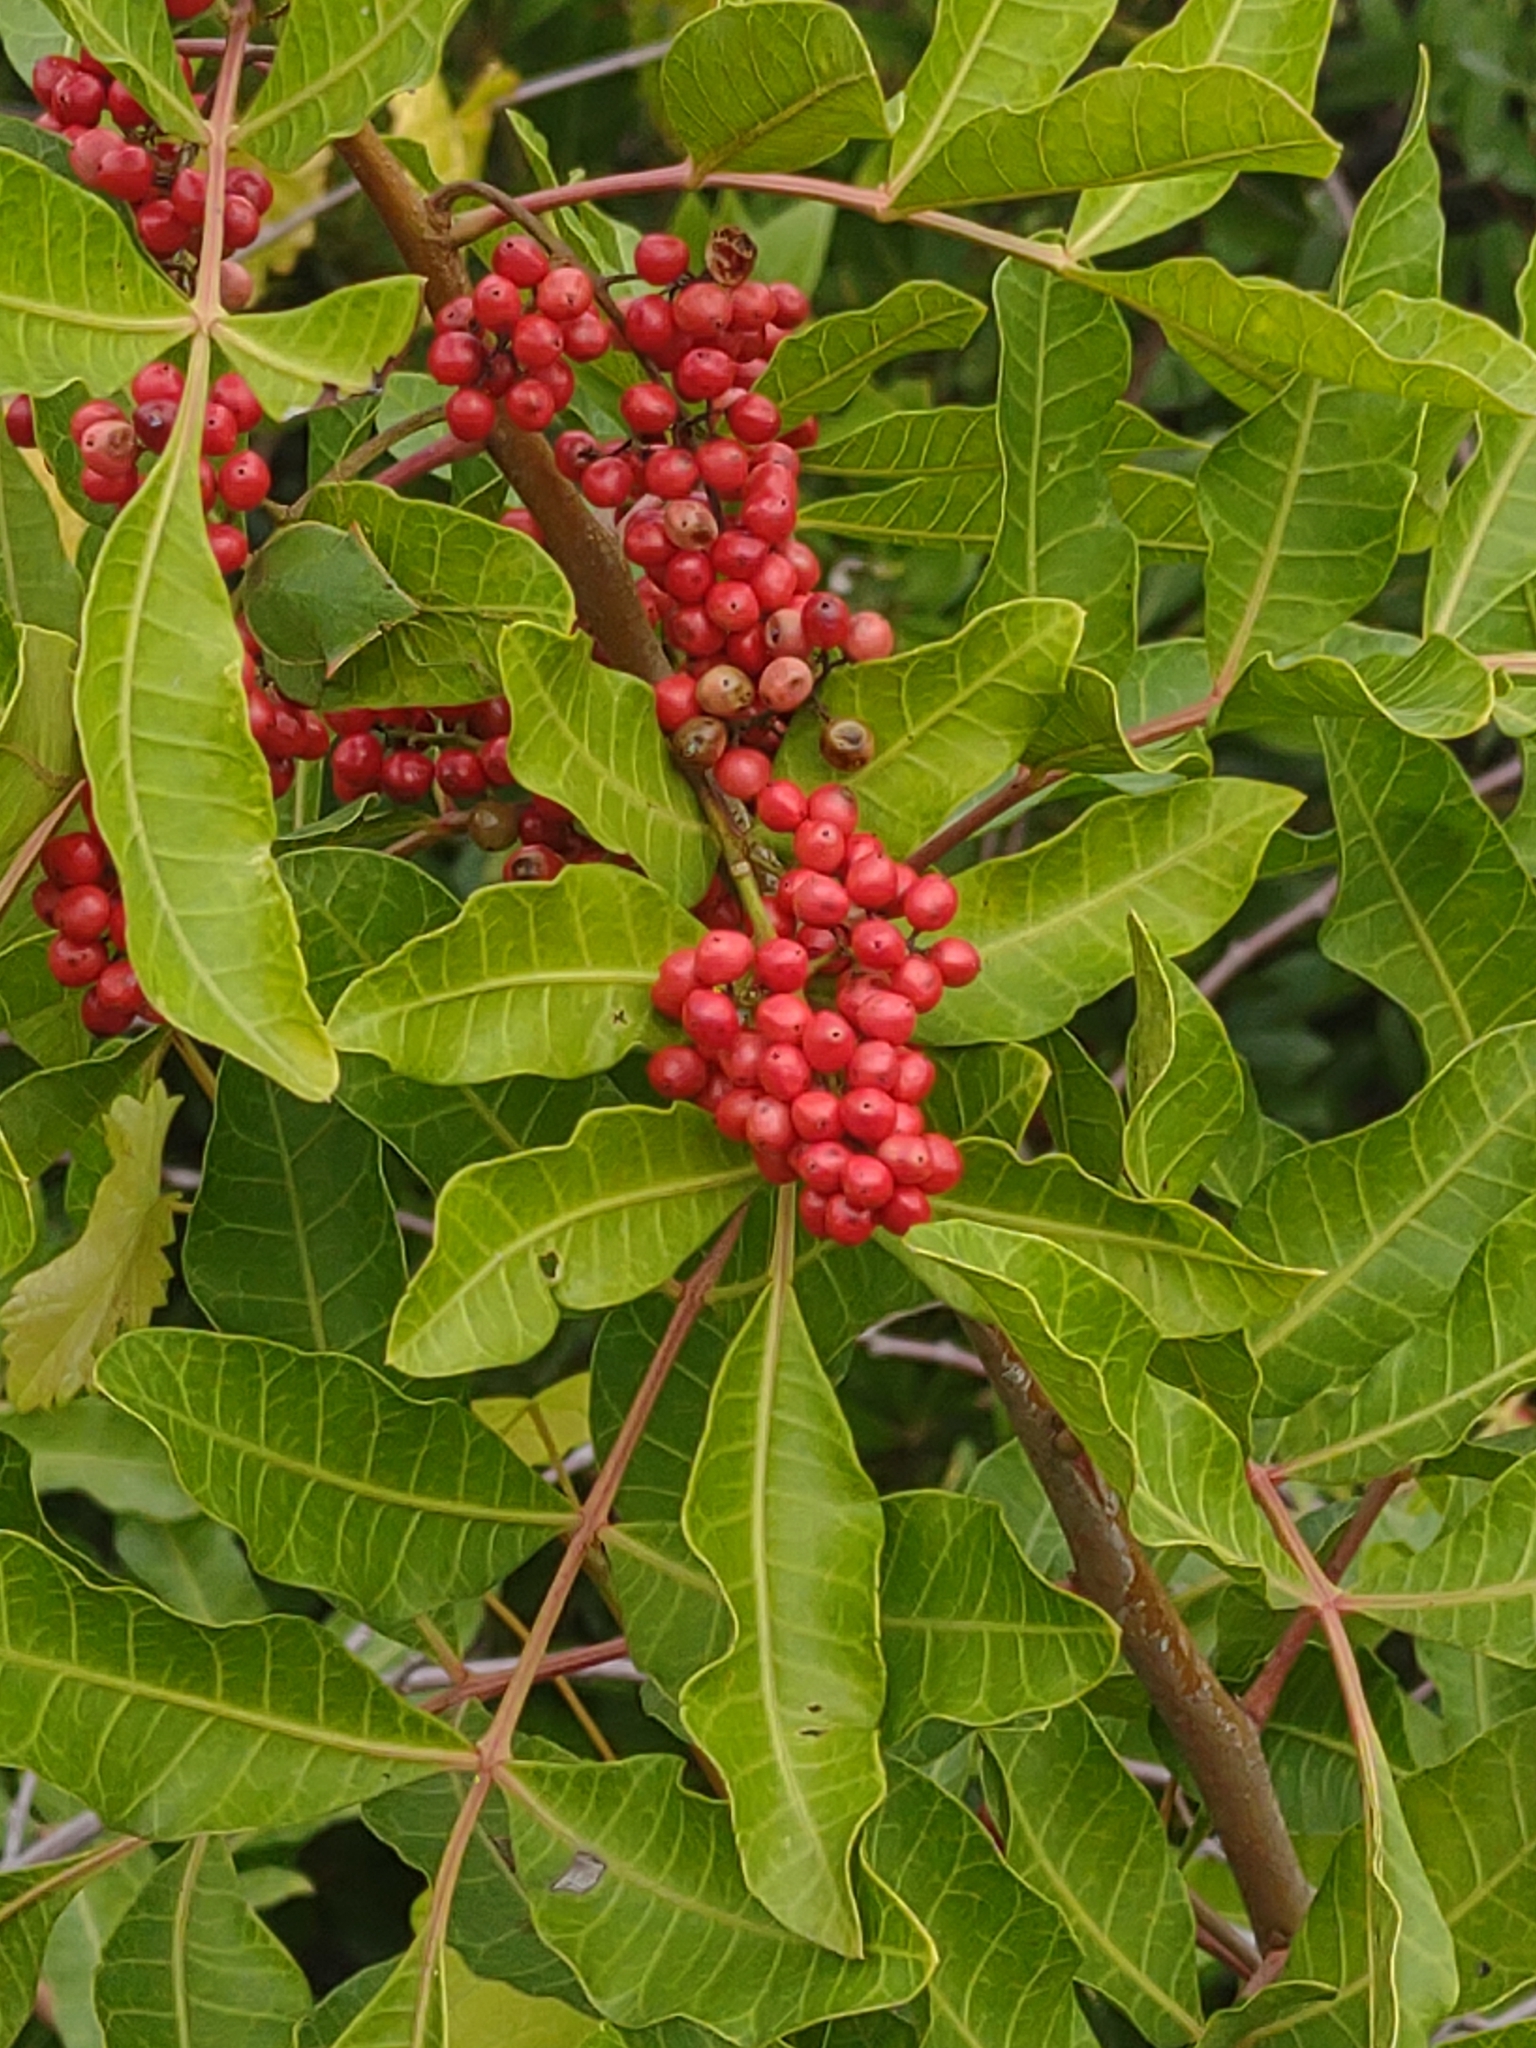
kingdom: Plantae
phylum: Tracheophyta
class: Magnoliopsida
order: Sapindales
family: Anacardiaceae
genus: Schinus
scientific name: Schinus terebinthifolia
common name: Brazilian peppertree
